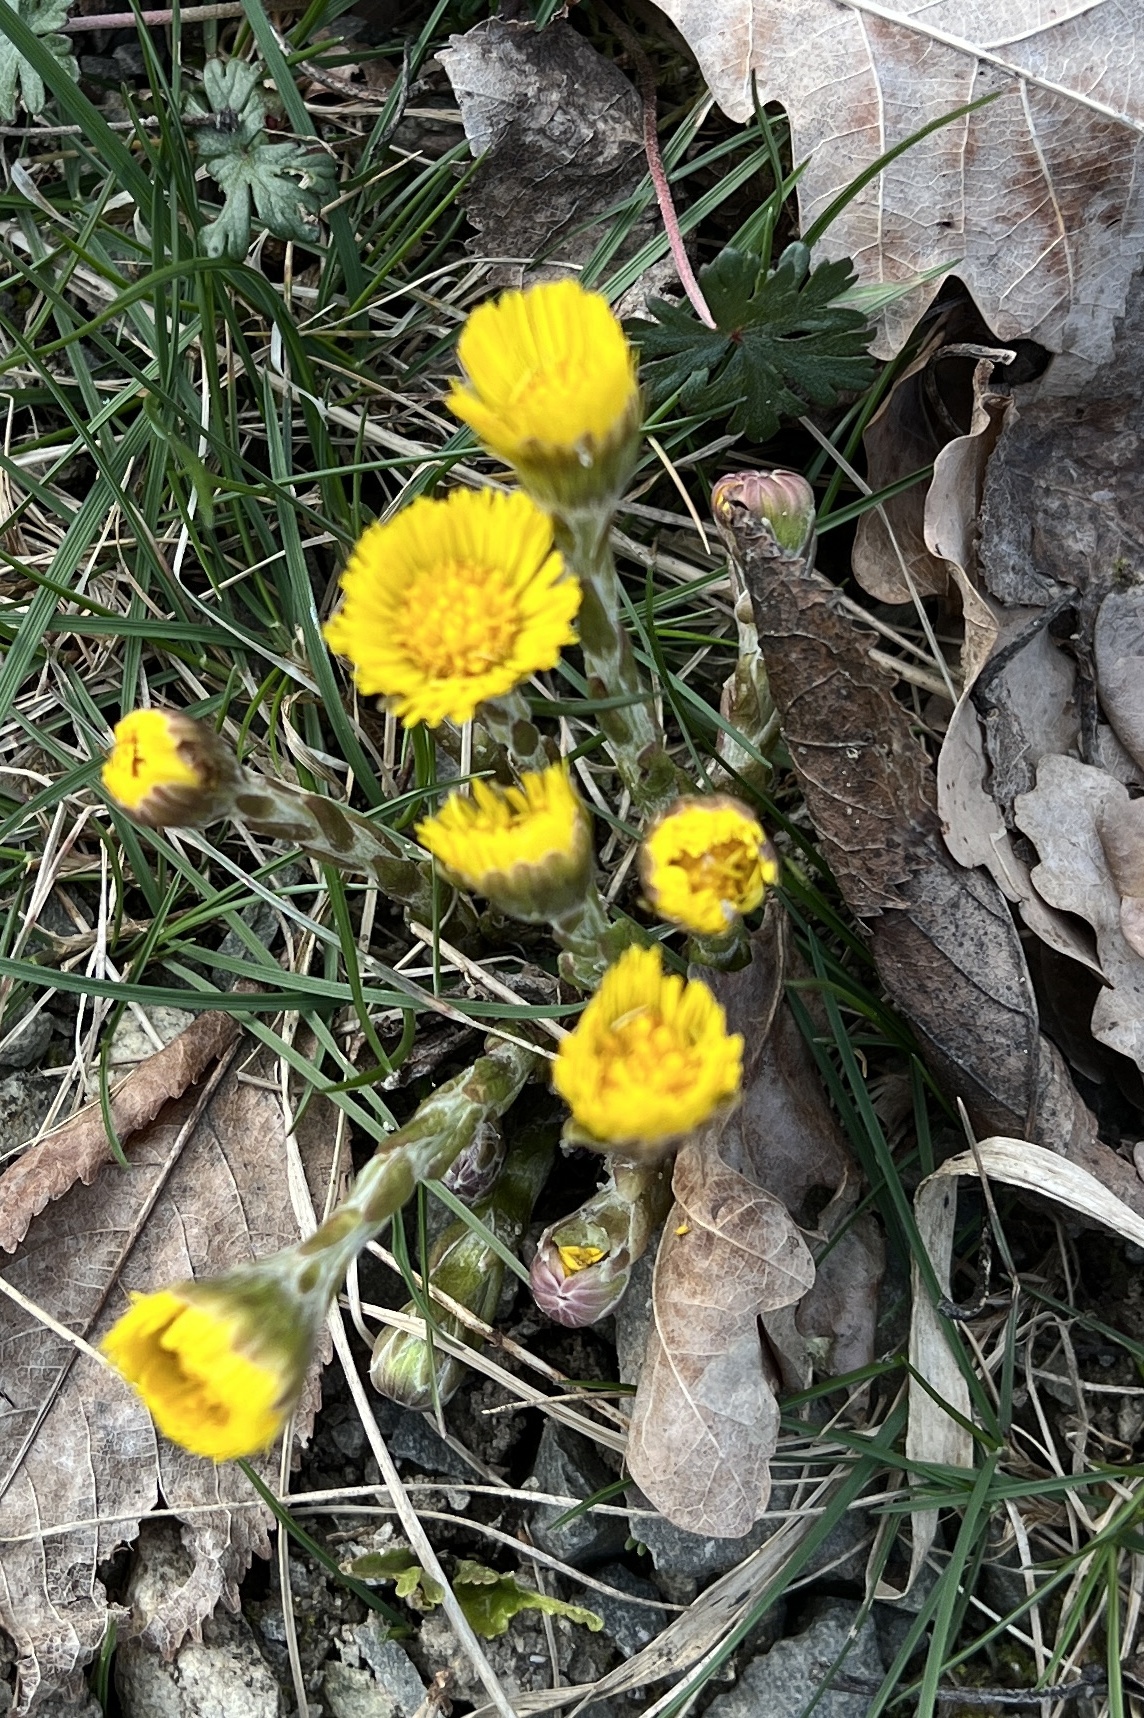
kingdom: Plantae
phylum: Tracheophyta
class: Magnoliopsida
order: Asterales
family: Asteraceae
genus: Tussilago
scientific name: Tussilago farfara
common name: Coltsfoot
